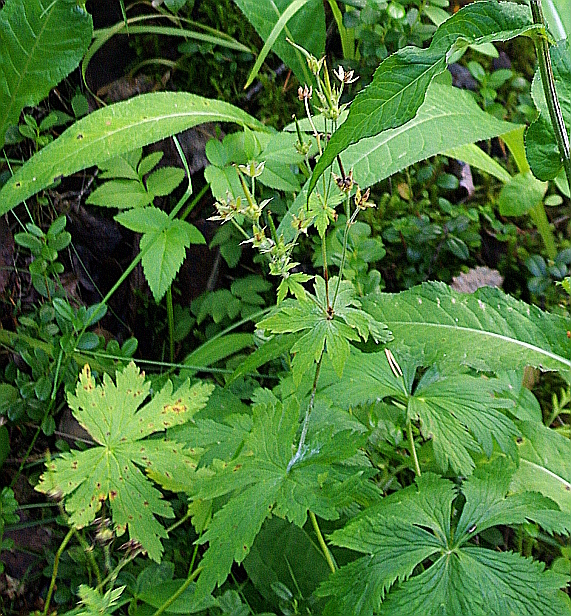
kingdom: Plantae
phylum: Tracheophyta
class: Magnoliopsida
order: Geraniales
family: Geraniaceae
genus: Geranium
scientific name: Geranium sylvaticum
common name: Wood crane's-bill
